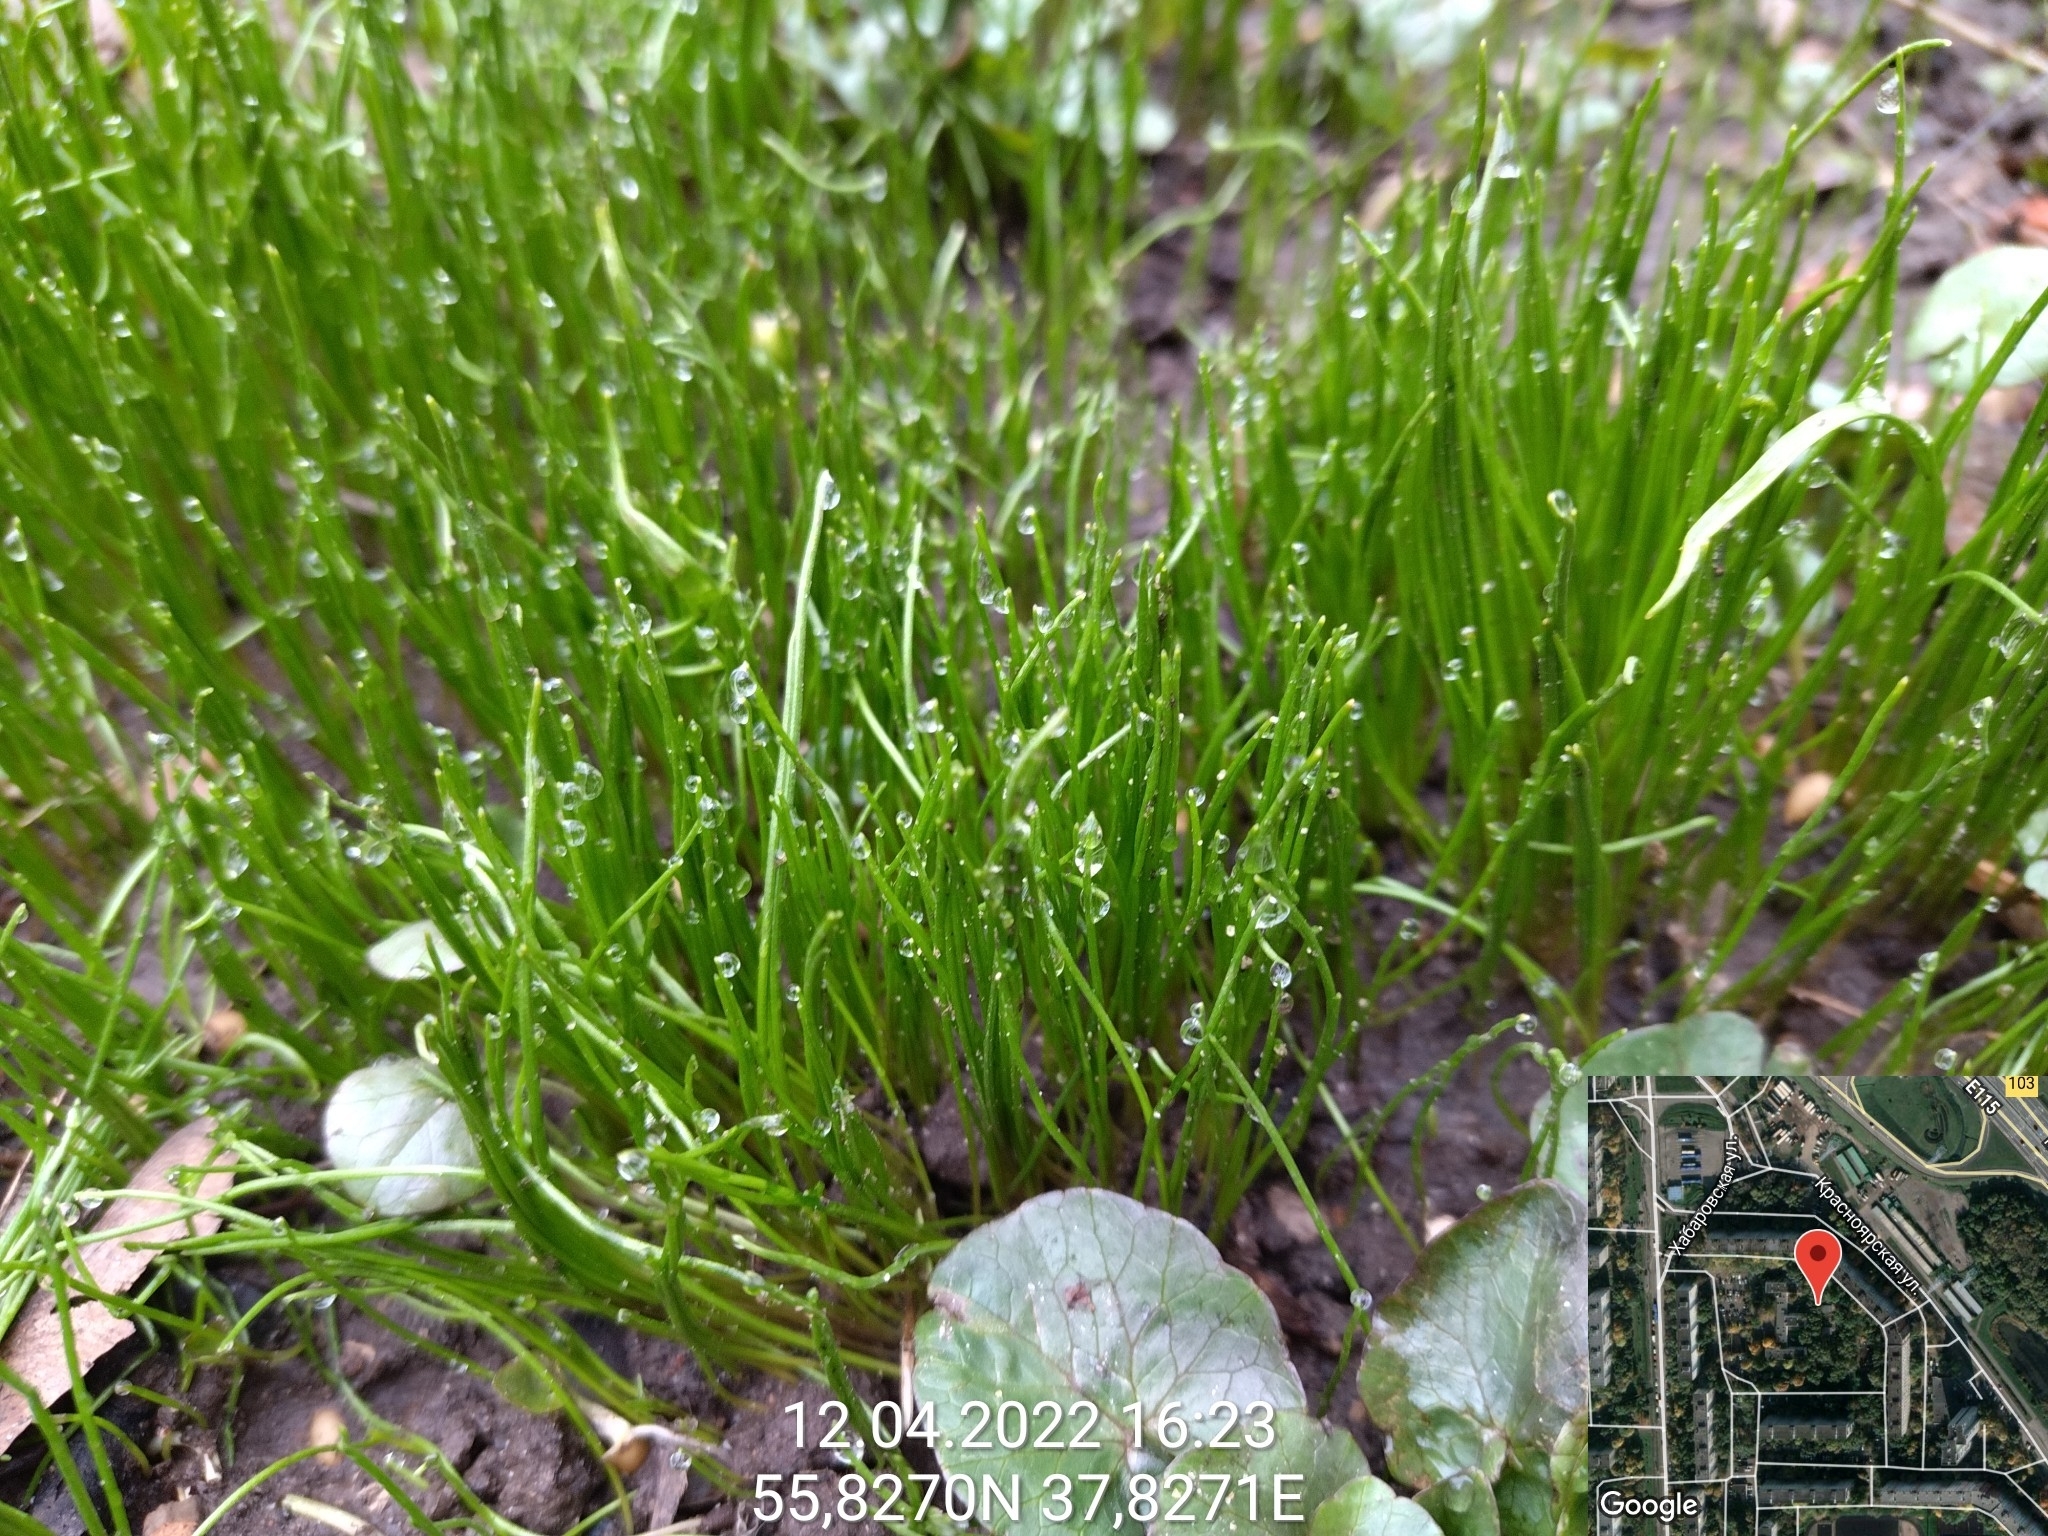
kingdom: Plantae
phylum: Tracheophyta
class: Liliopsida
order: Liliales
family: Liliaceae
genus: Gagea
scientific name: Gagea minima
